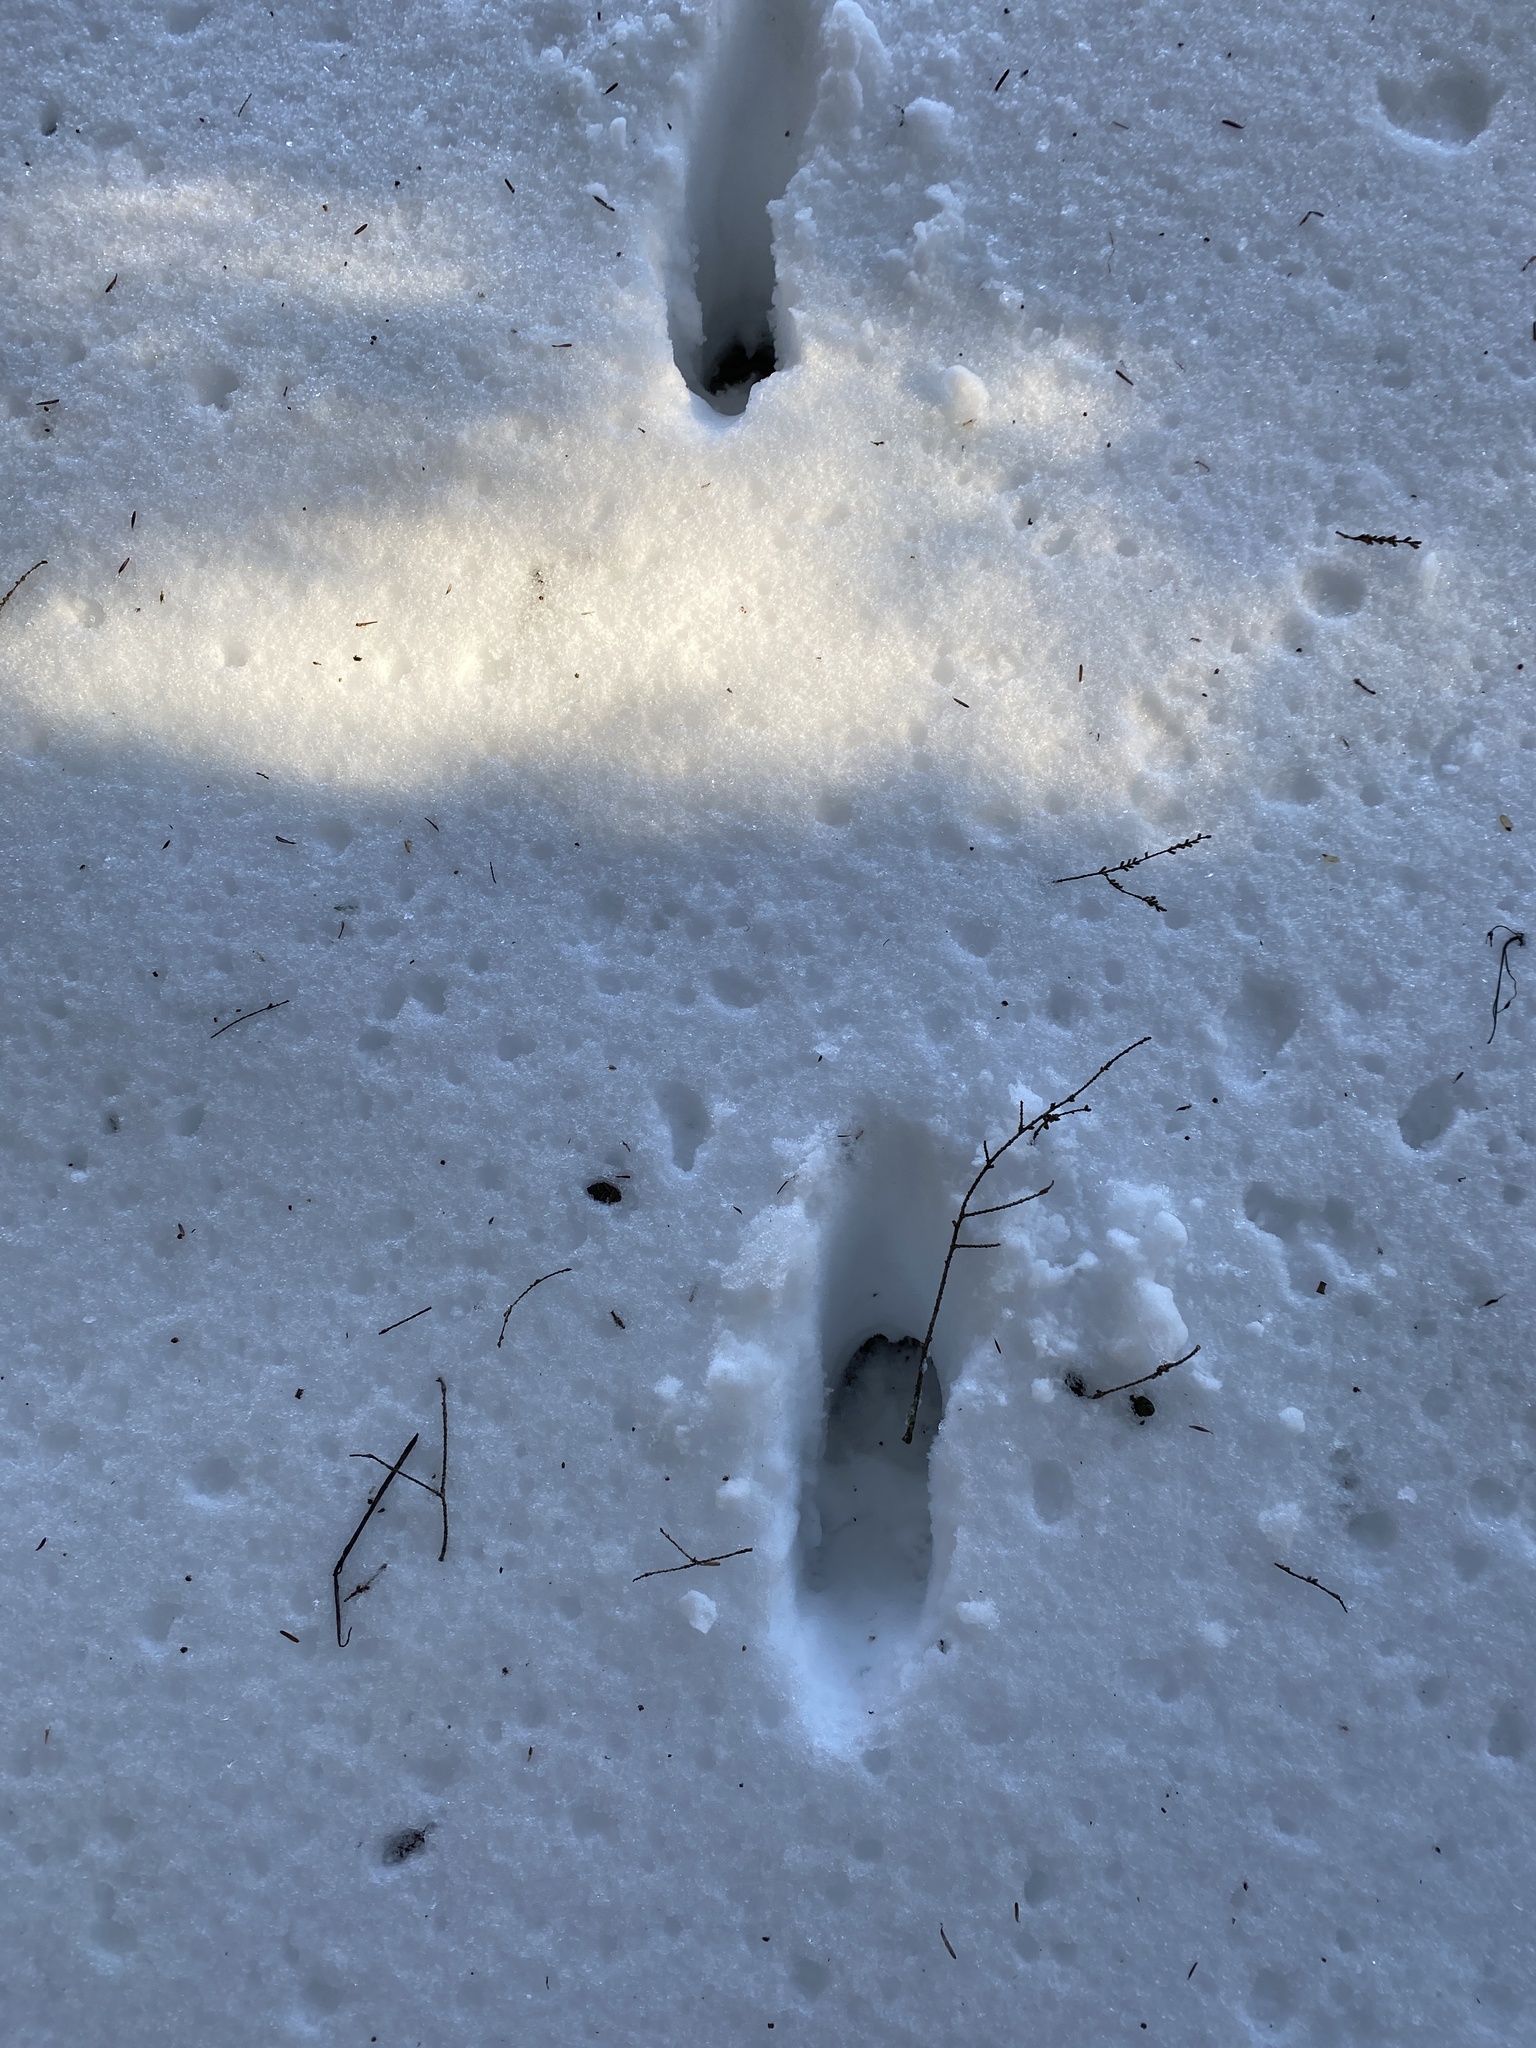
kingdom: Animalia
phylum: Chordata
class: Mammalia
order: Artiodactyla
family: Cervidae
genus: Odocoileus
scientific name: Odocoileus virginianus
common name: White-tailed deer
